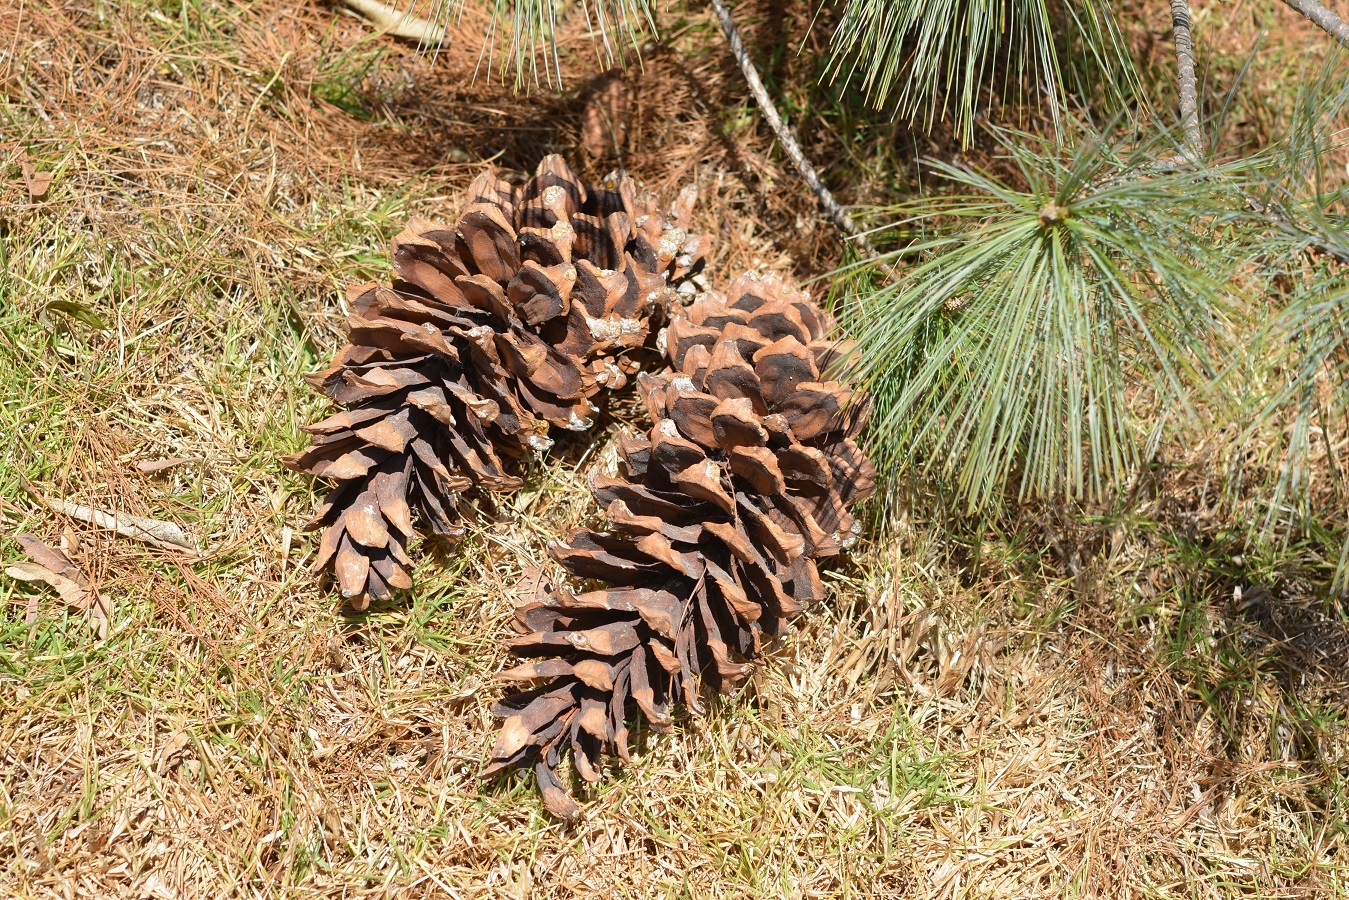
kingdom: Plantae
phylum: Tracheophyta
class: Pinopsida
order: Pinales
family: Pinaceae
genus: Pinus
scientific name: Pinus ayacahuite
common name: Mexican white pine
